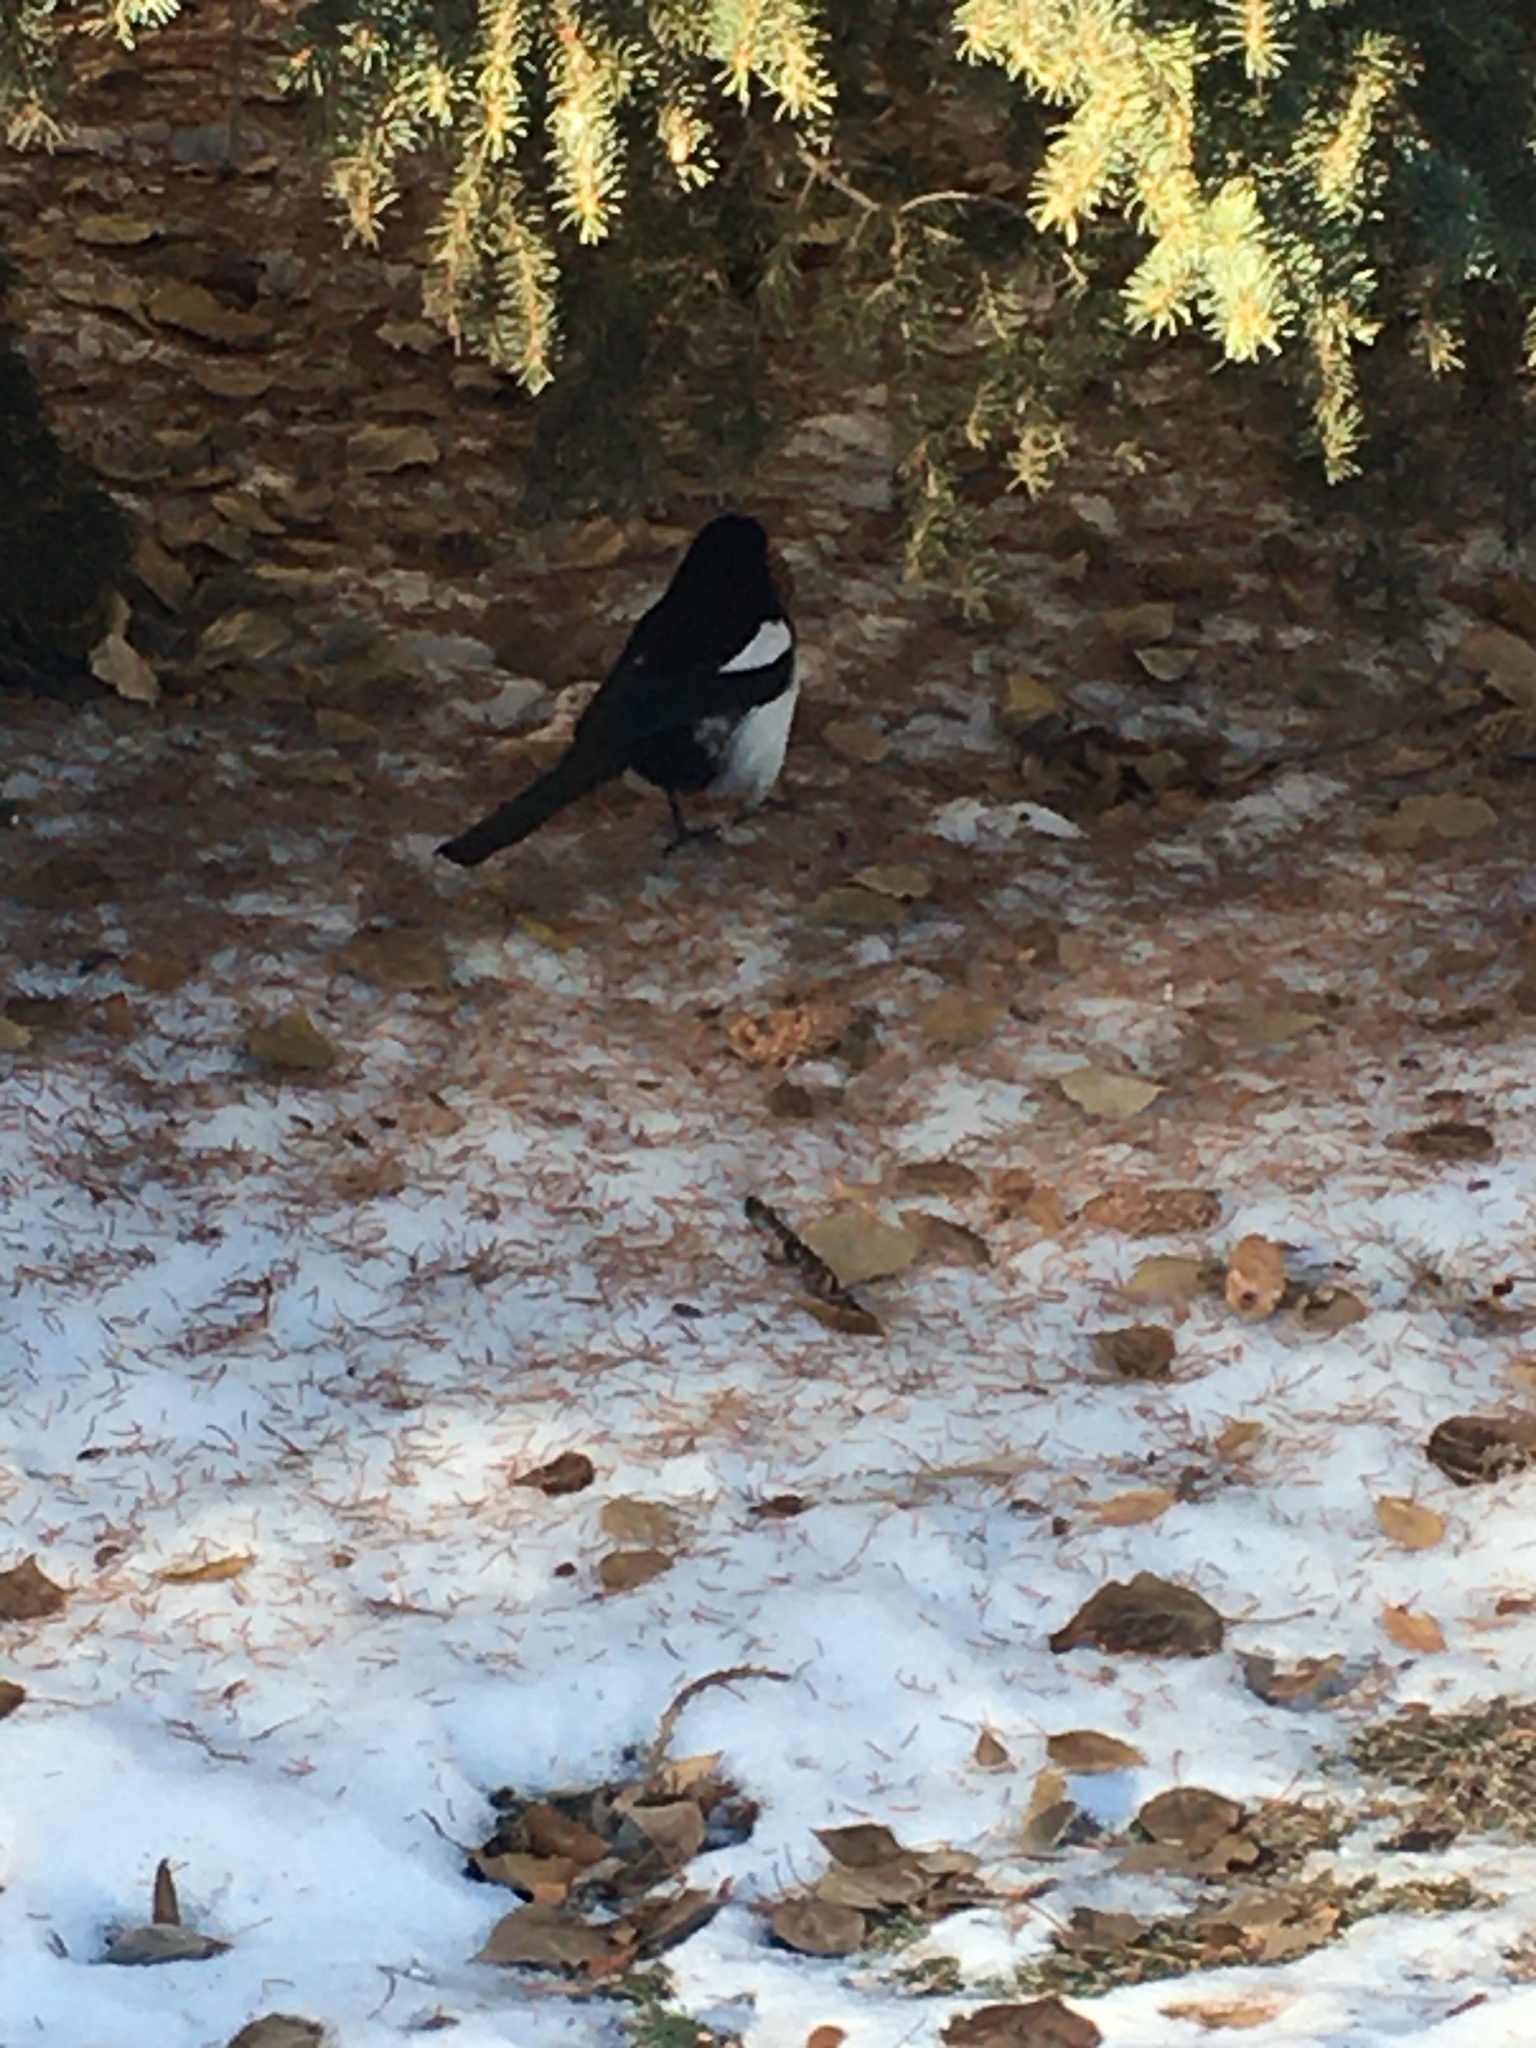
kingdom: Animalia
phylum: Chordata
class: Aves
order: Passeriformes
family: Corvidae
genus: Pica
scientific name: Pica hudsonia
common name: Black-billed magpie
